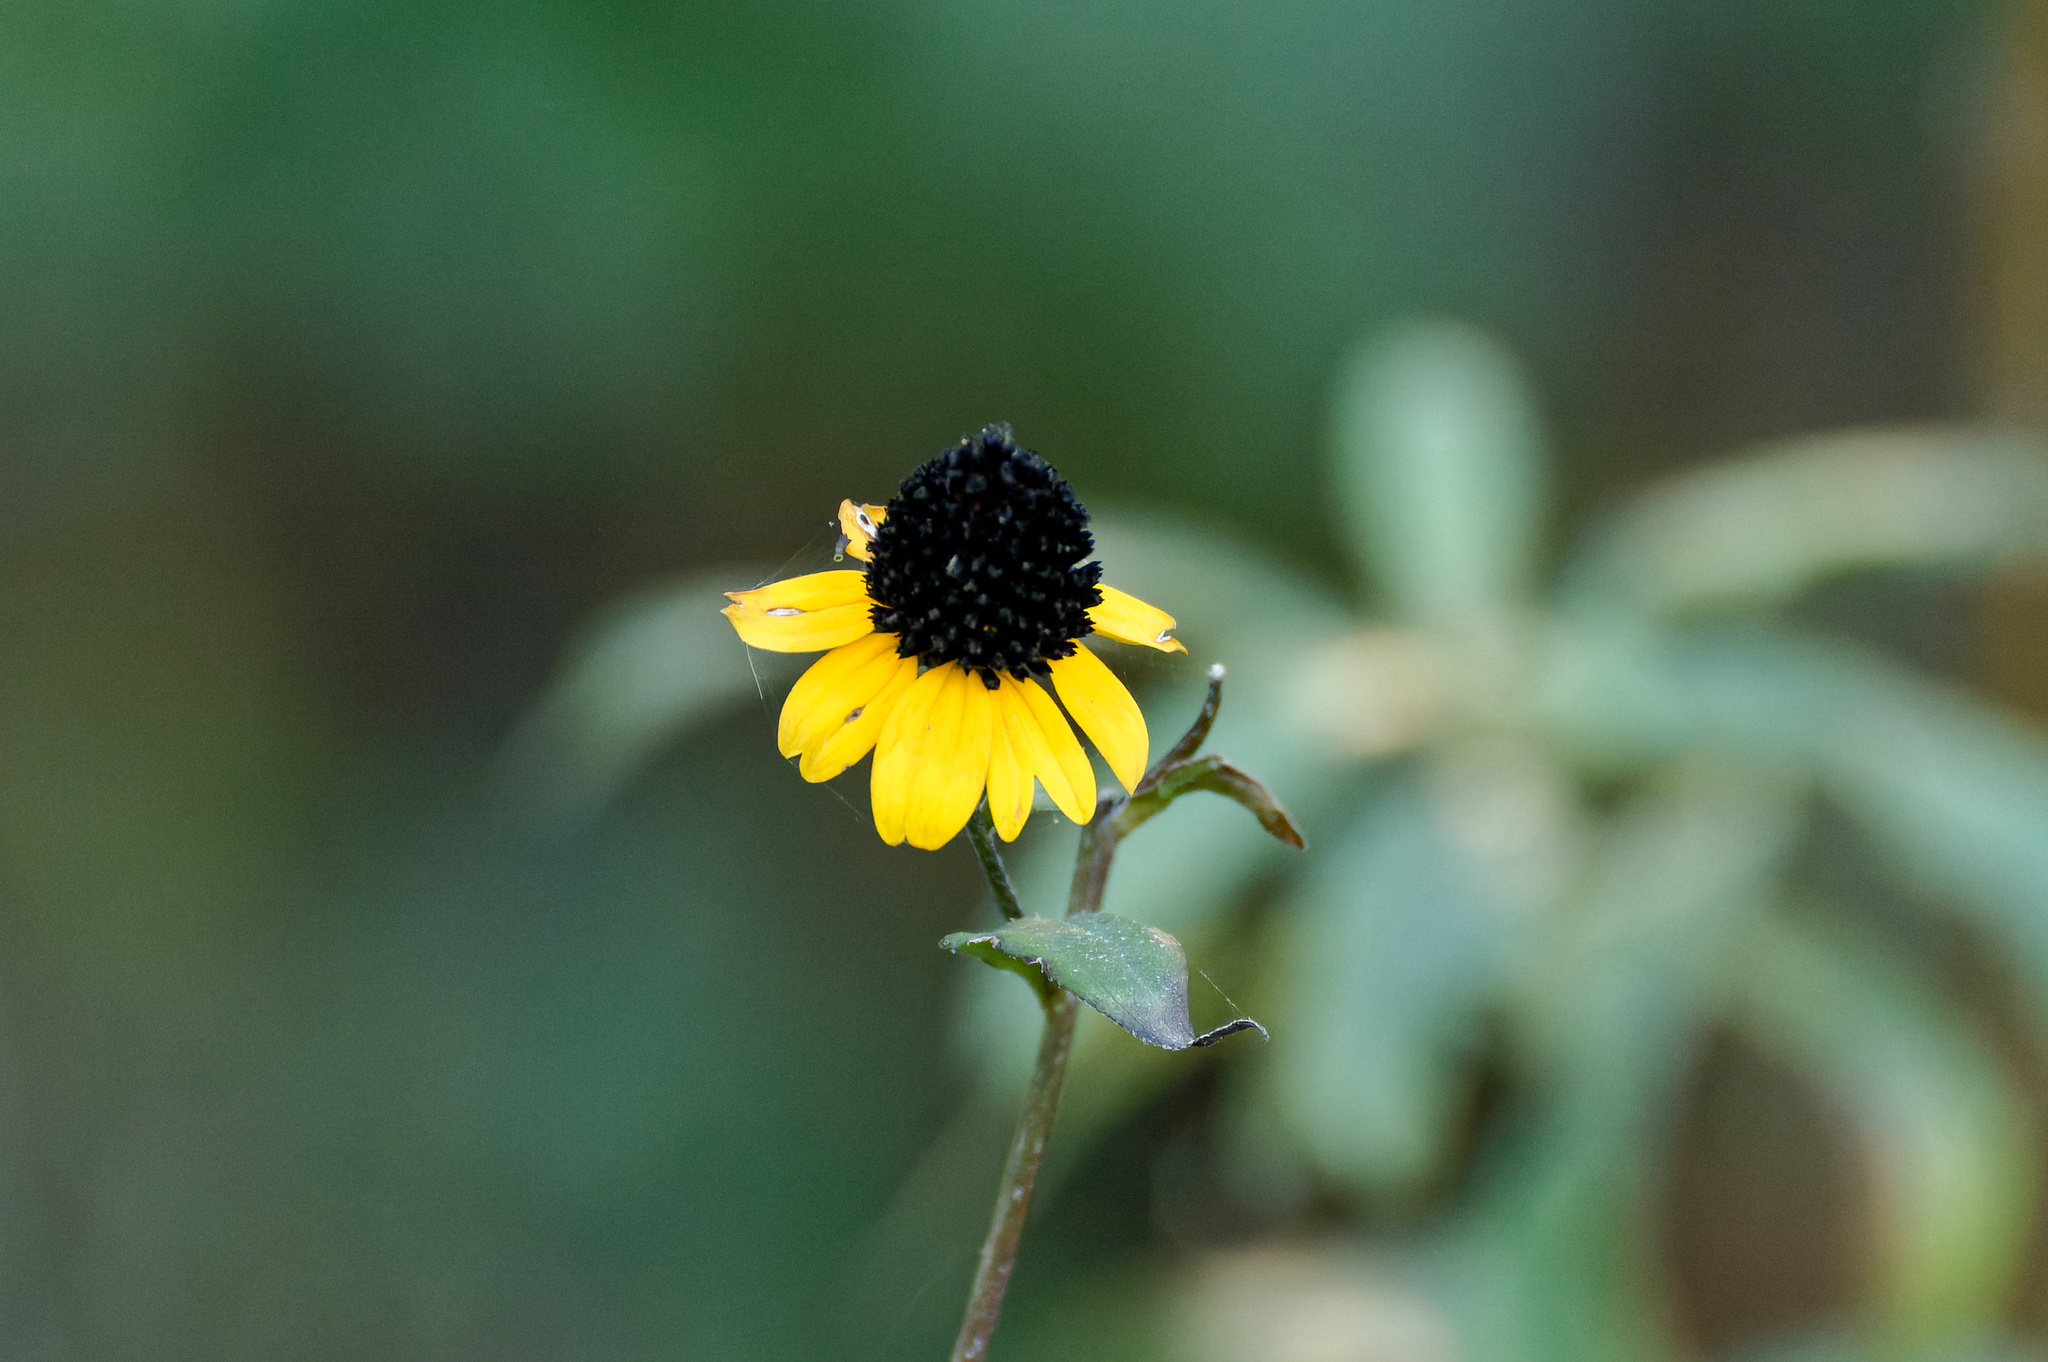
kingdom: Plantae
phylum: Tracheophyta
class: Magnoliopsida
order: Asterales
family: Asteraceae
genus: Rudbeckia
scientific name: Rudbeckia triloba
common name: Thin-leaved coneflower
